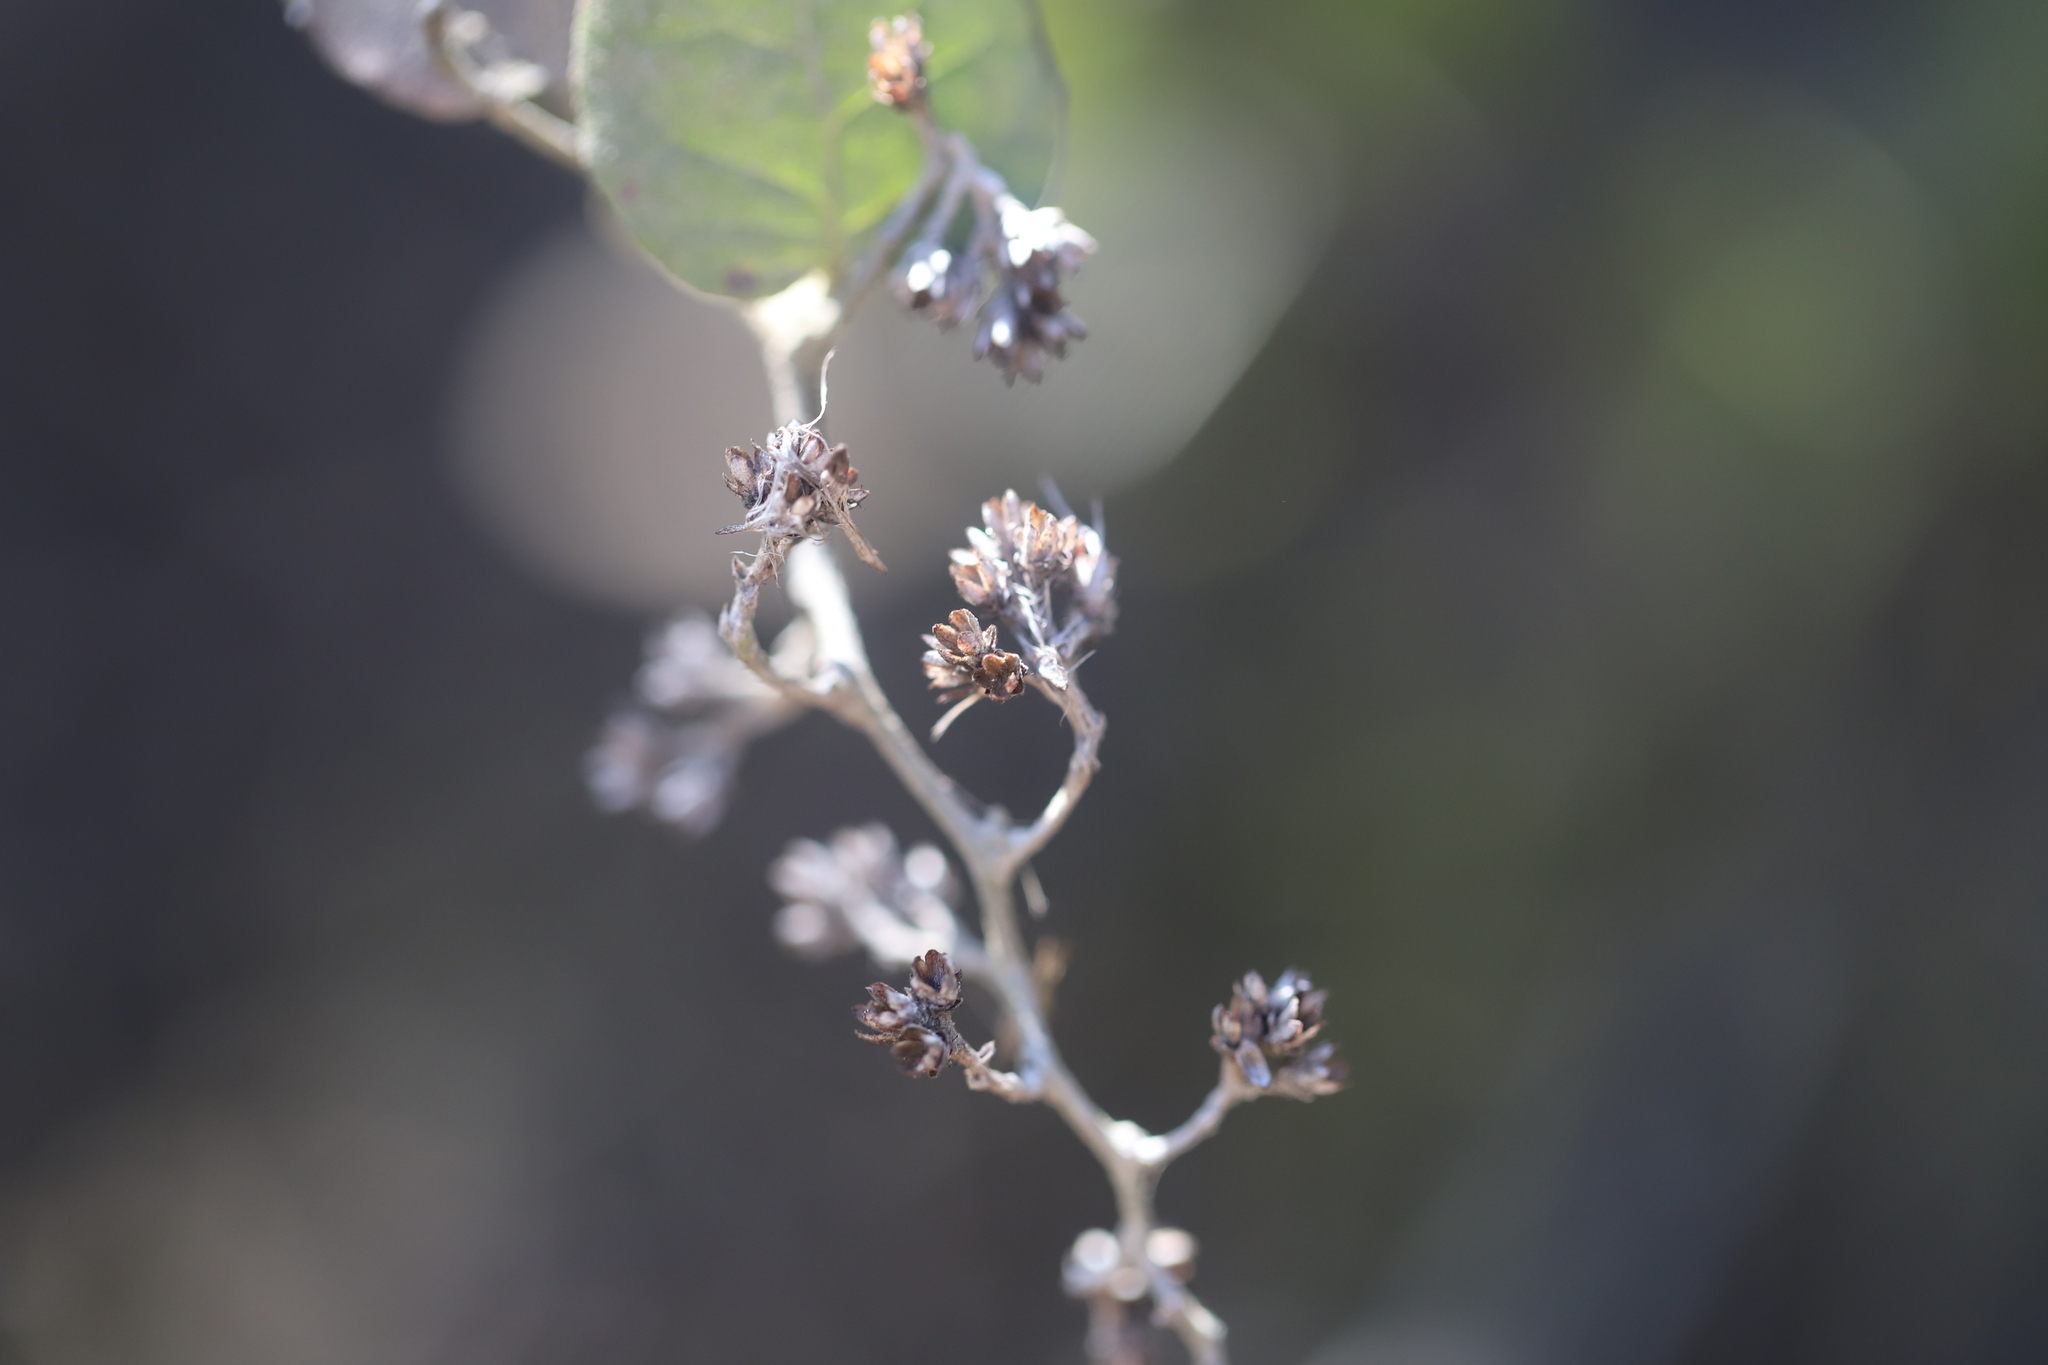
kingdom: Plantae
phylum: Tracheophyta
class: Magnoliopsida
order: Asterales
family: Asteraceae
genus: Proustia
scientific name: Proustia pyrifolia
